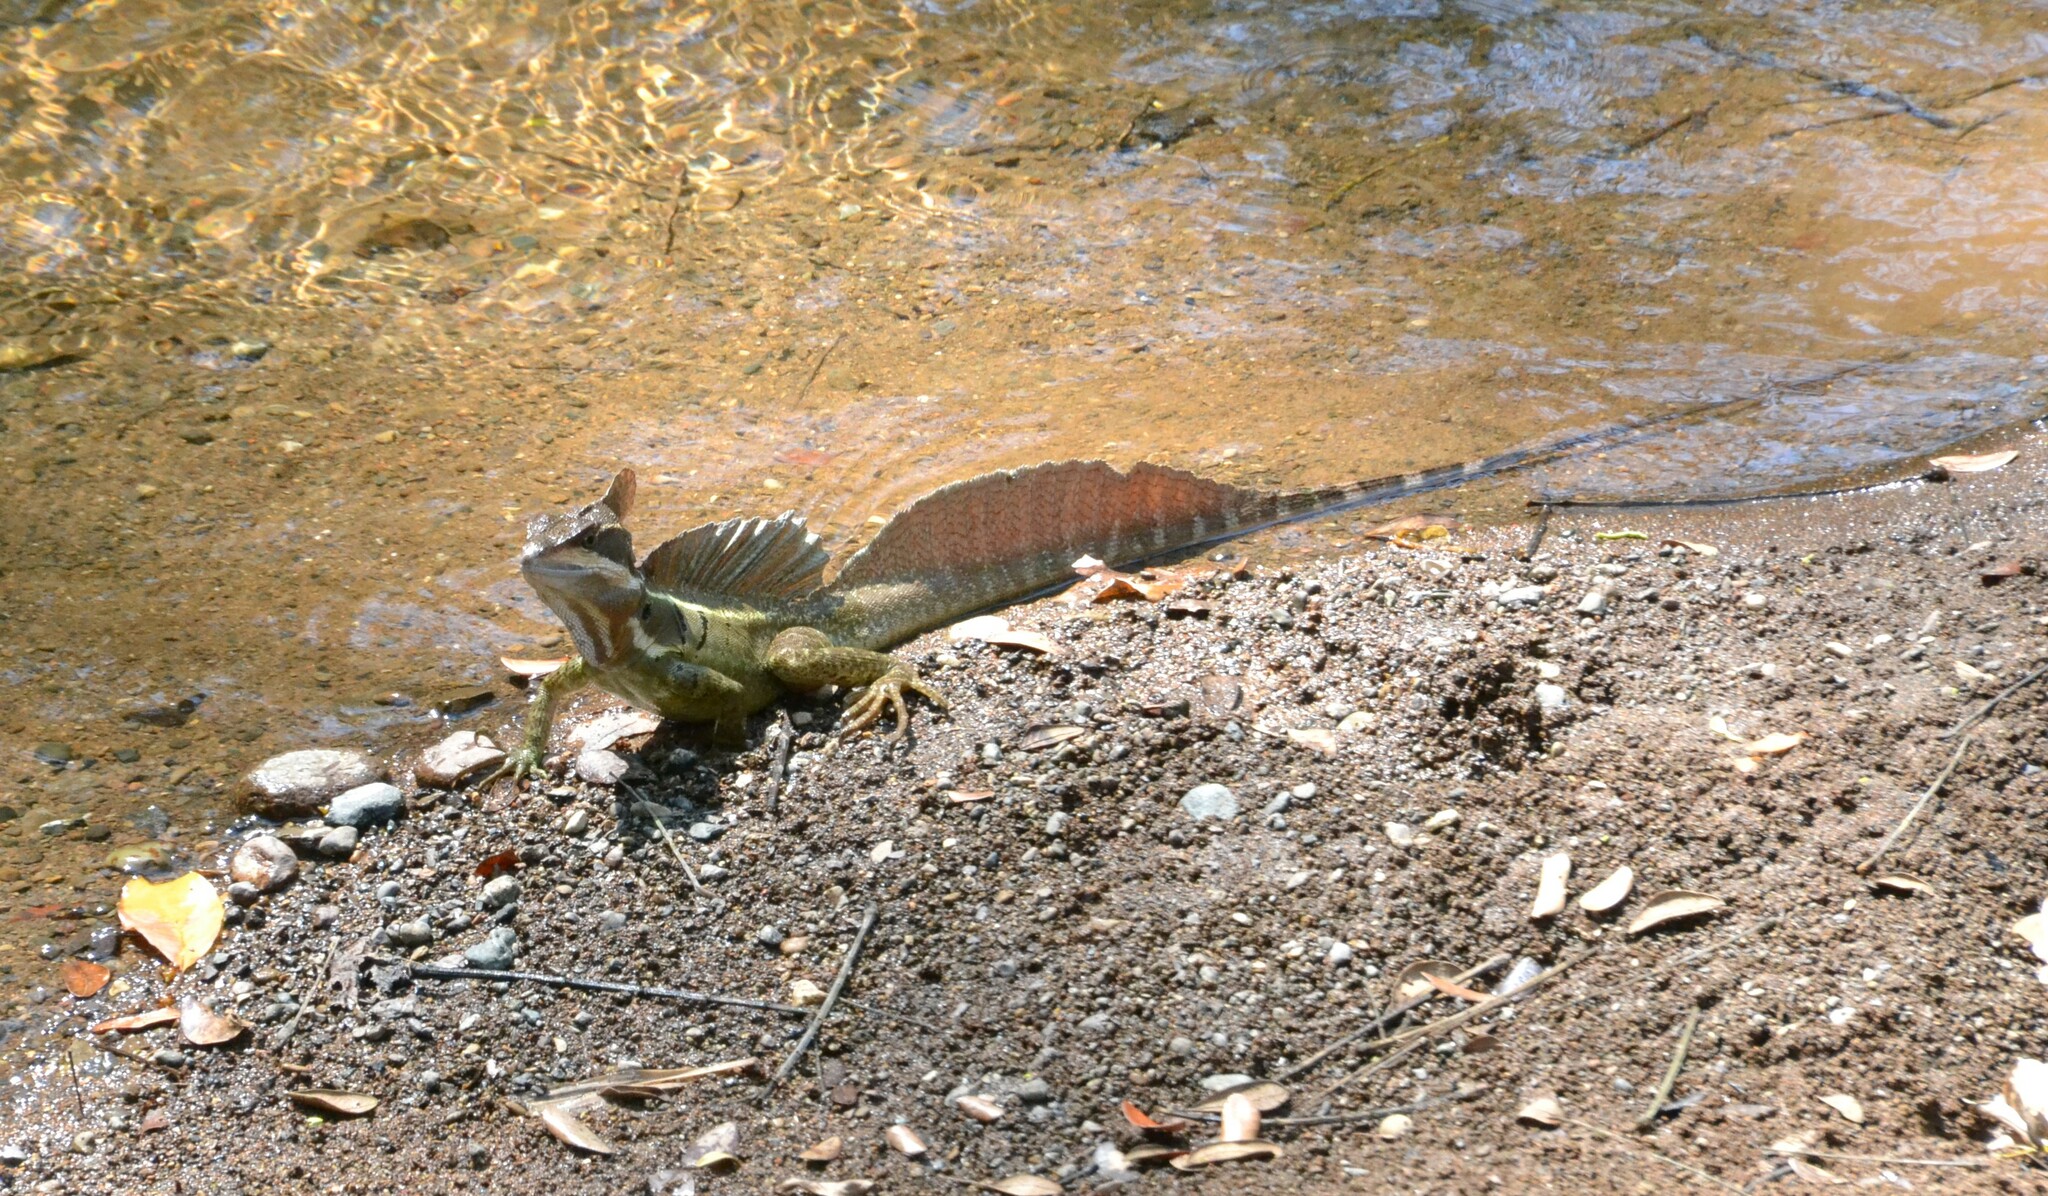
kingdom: Animalia
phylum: Chordata
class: Squamata
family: Corytophanidae
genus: Basiliscus
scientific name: Basiliscus basiliscus
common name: Common basilisk
